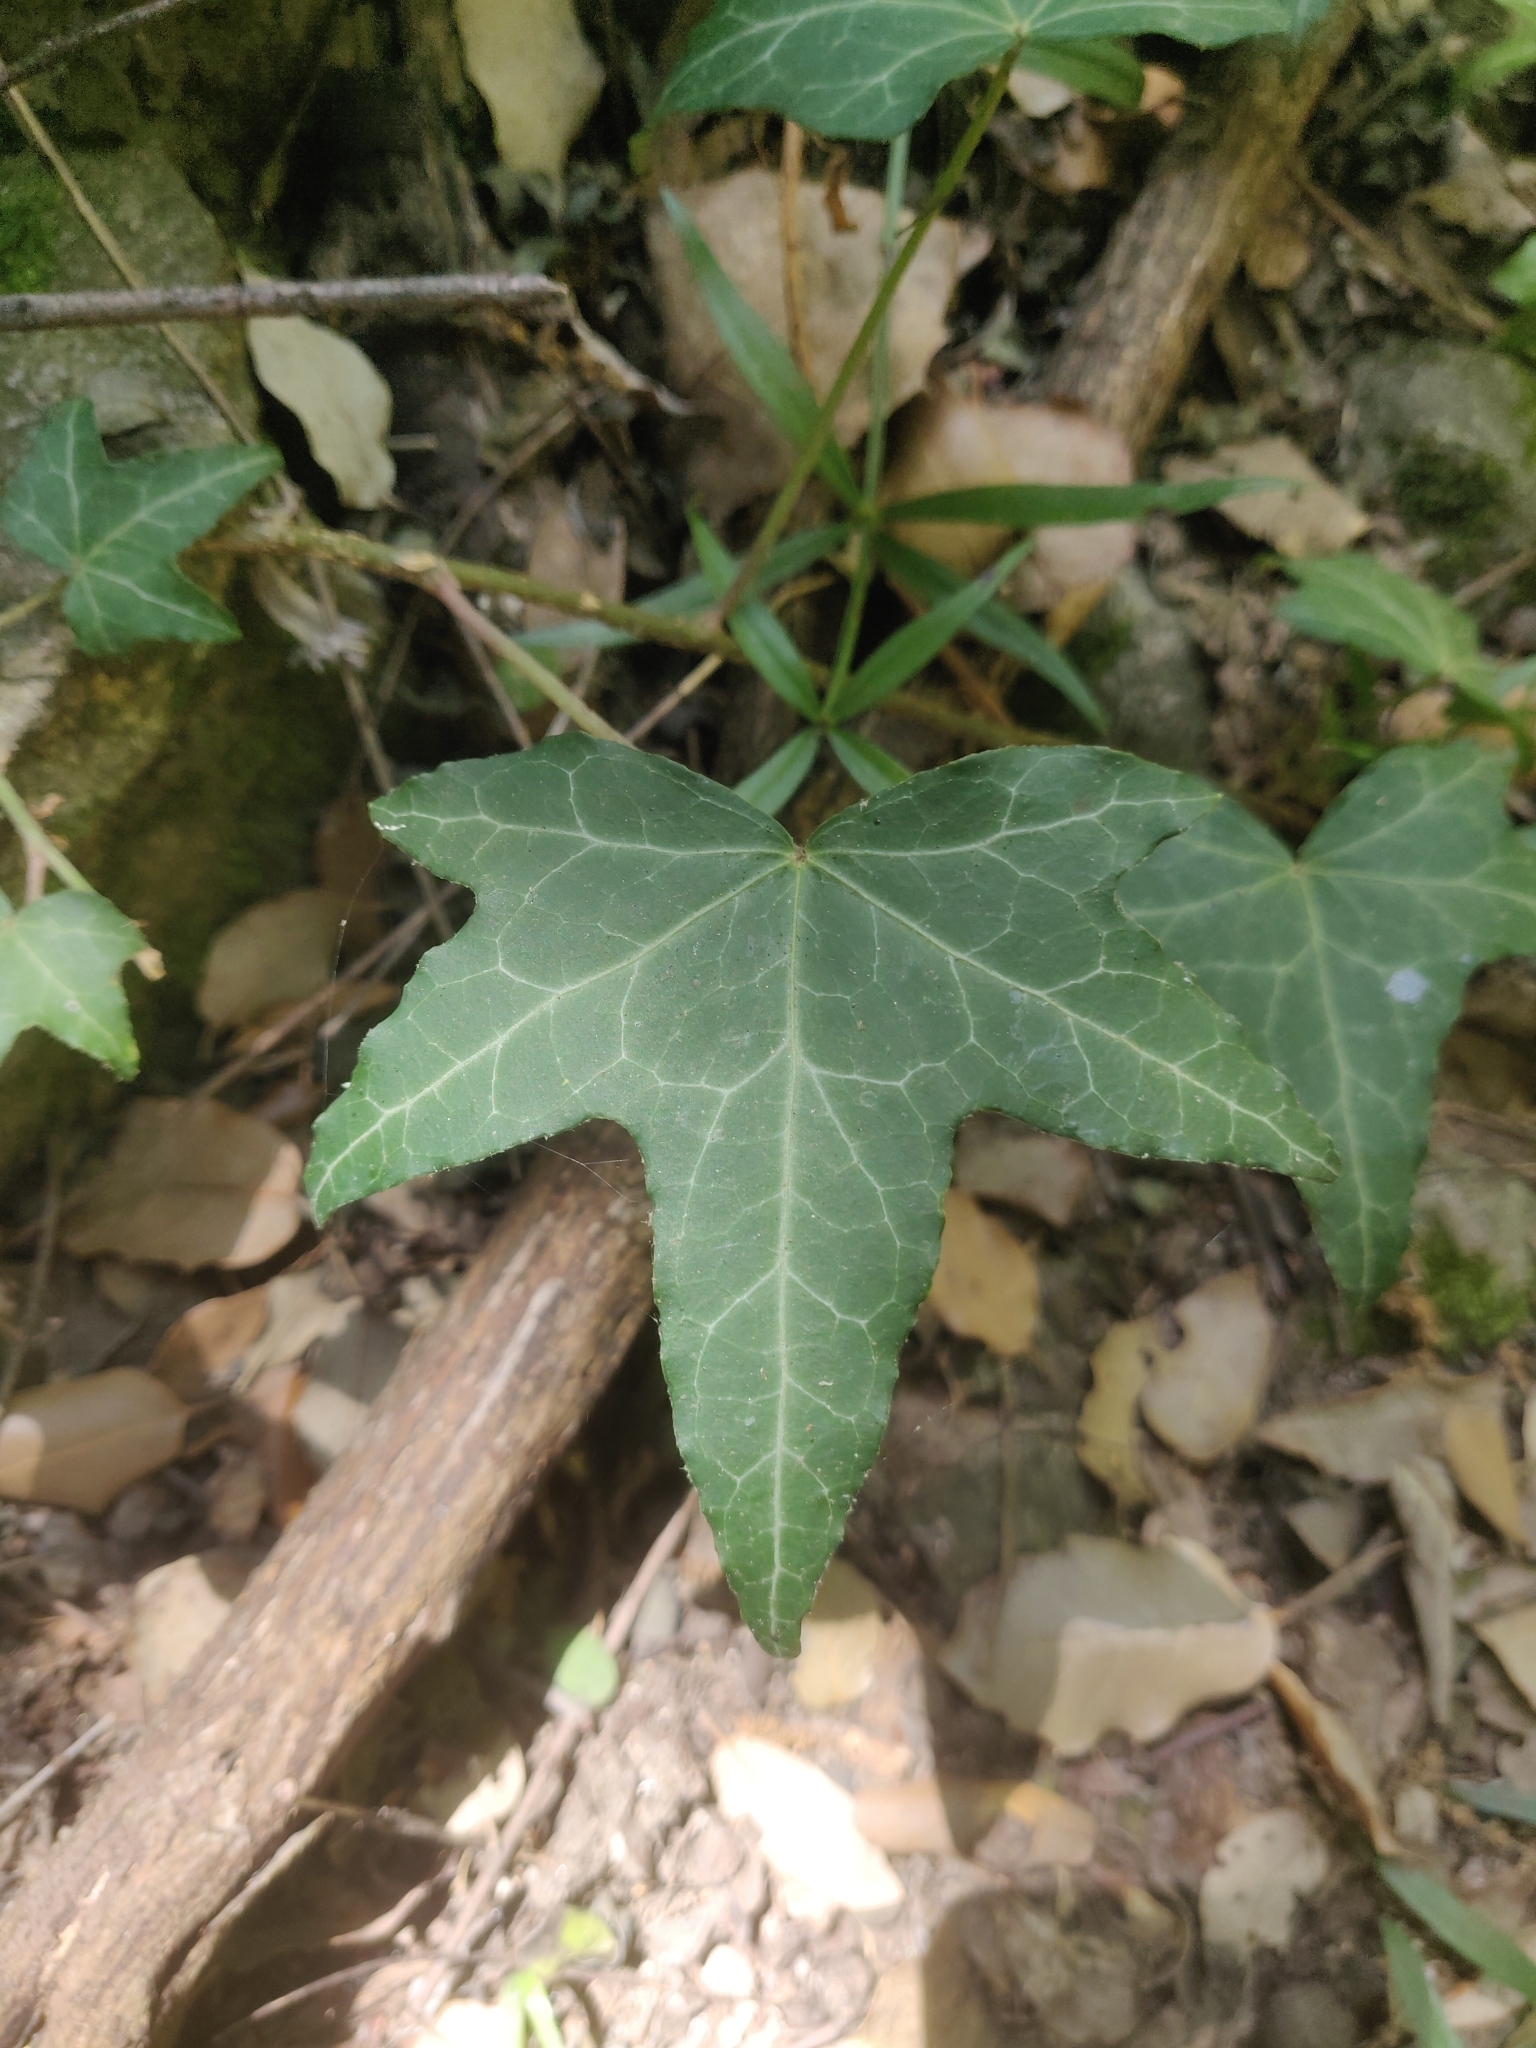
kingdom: Plantae
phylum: Tracheophyta
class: Magnoliopsida
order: Apiales
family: Araliaceae
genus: Hedera
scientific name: Hedera helix
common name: Ivy
